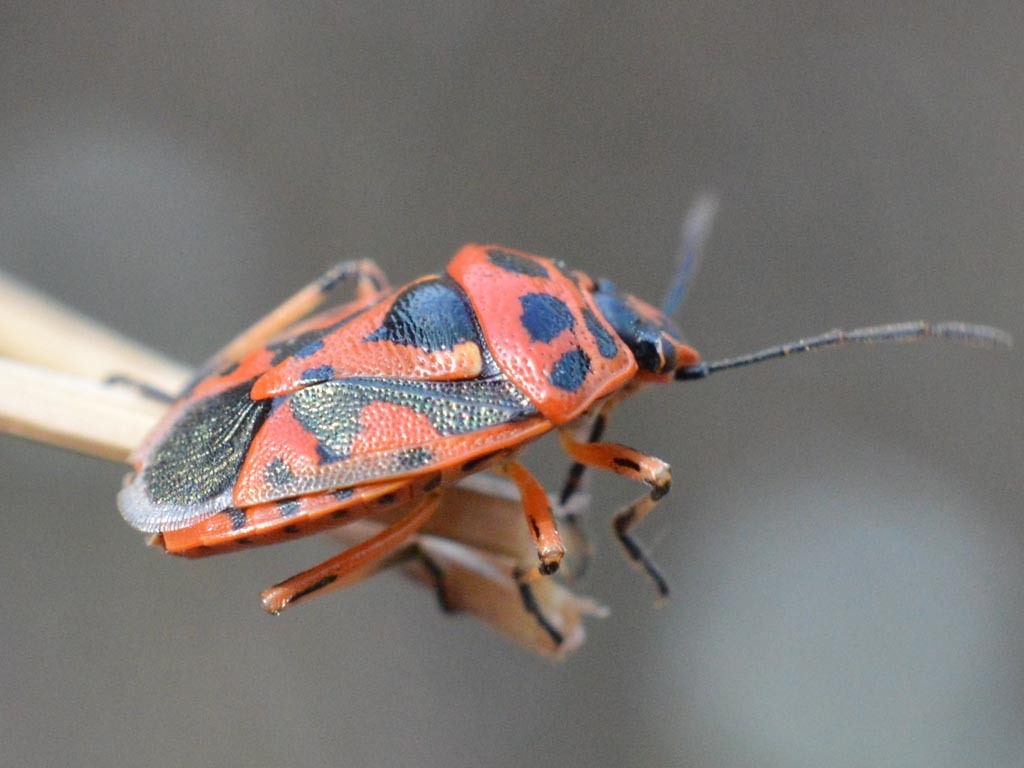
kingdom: Animalia
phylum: Arthropoda
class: Insecta
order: Hemiptera
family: Pentatomidae
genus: Eurydema
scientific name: Eurydema ornata
